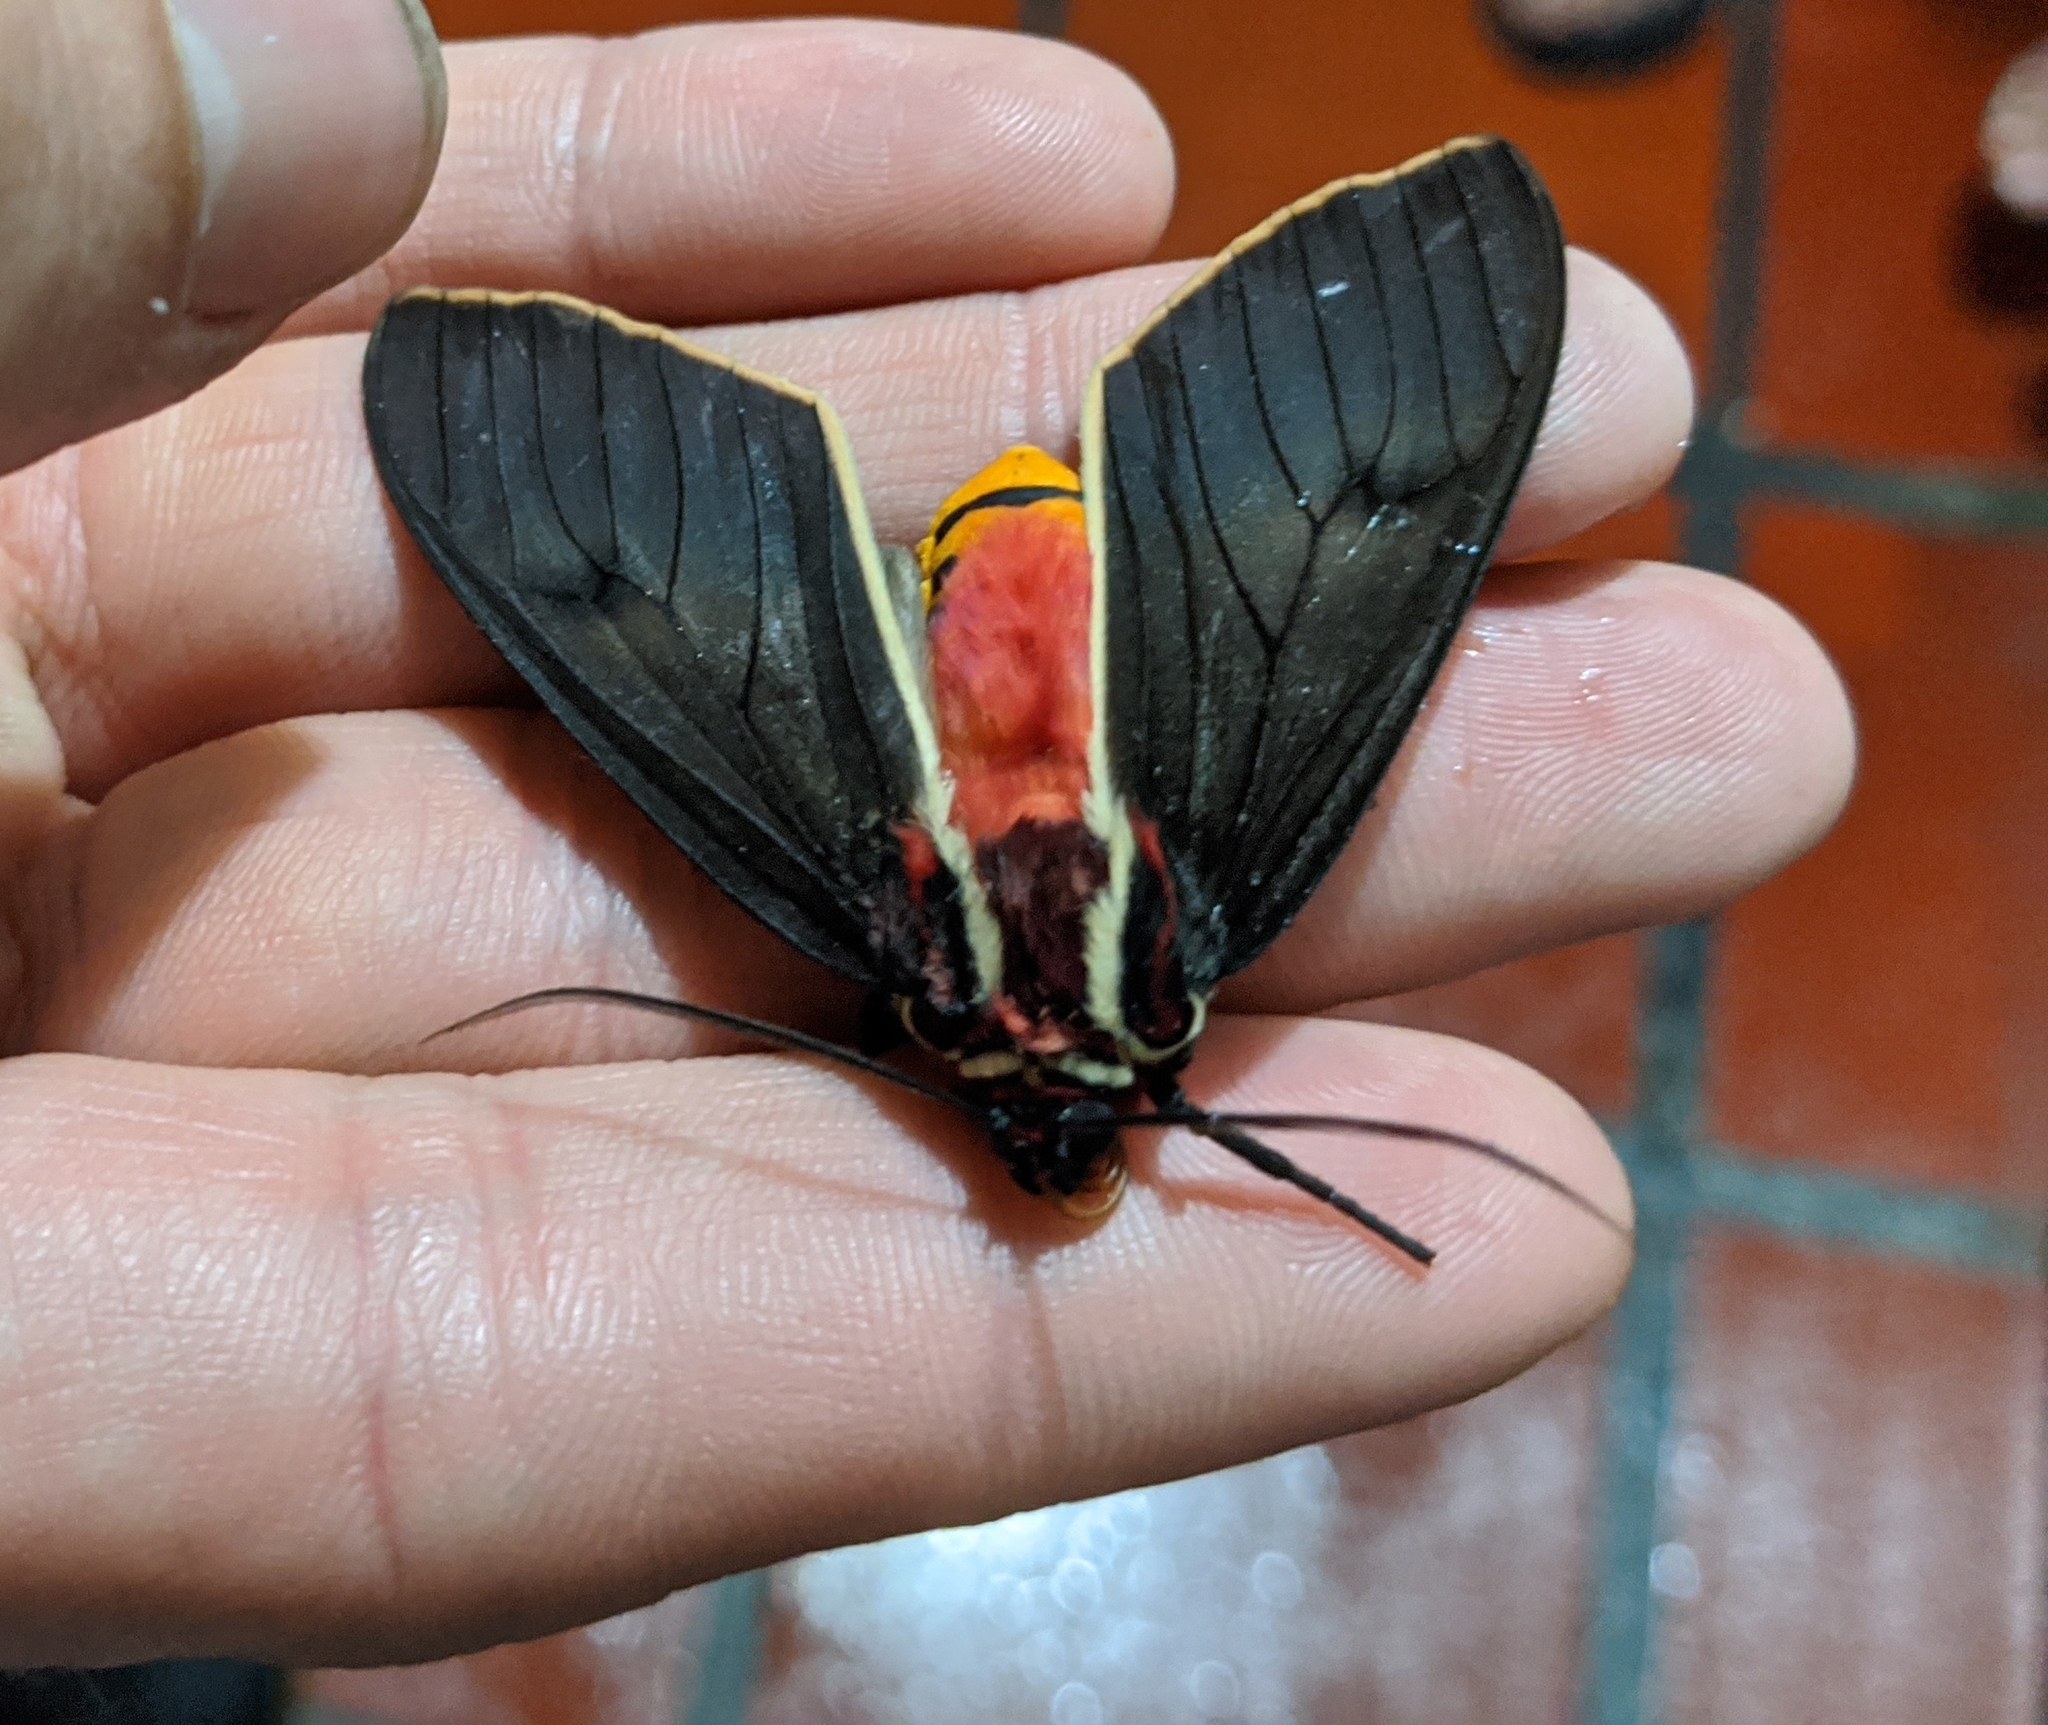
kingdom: Animalia
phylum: Arthropoda
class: Insecta
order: Lepidoptera
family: Erebidae
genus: Amastus
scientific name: Amastus episcotosia
